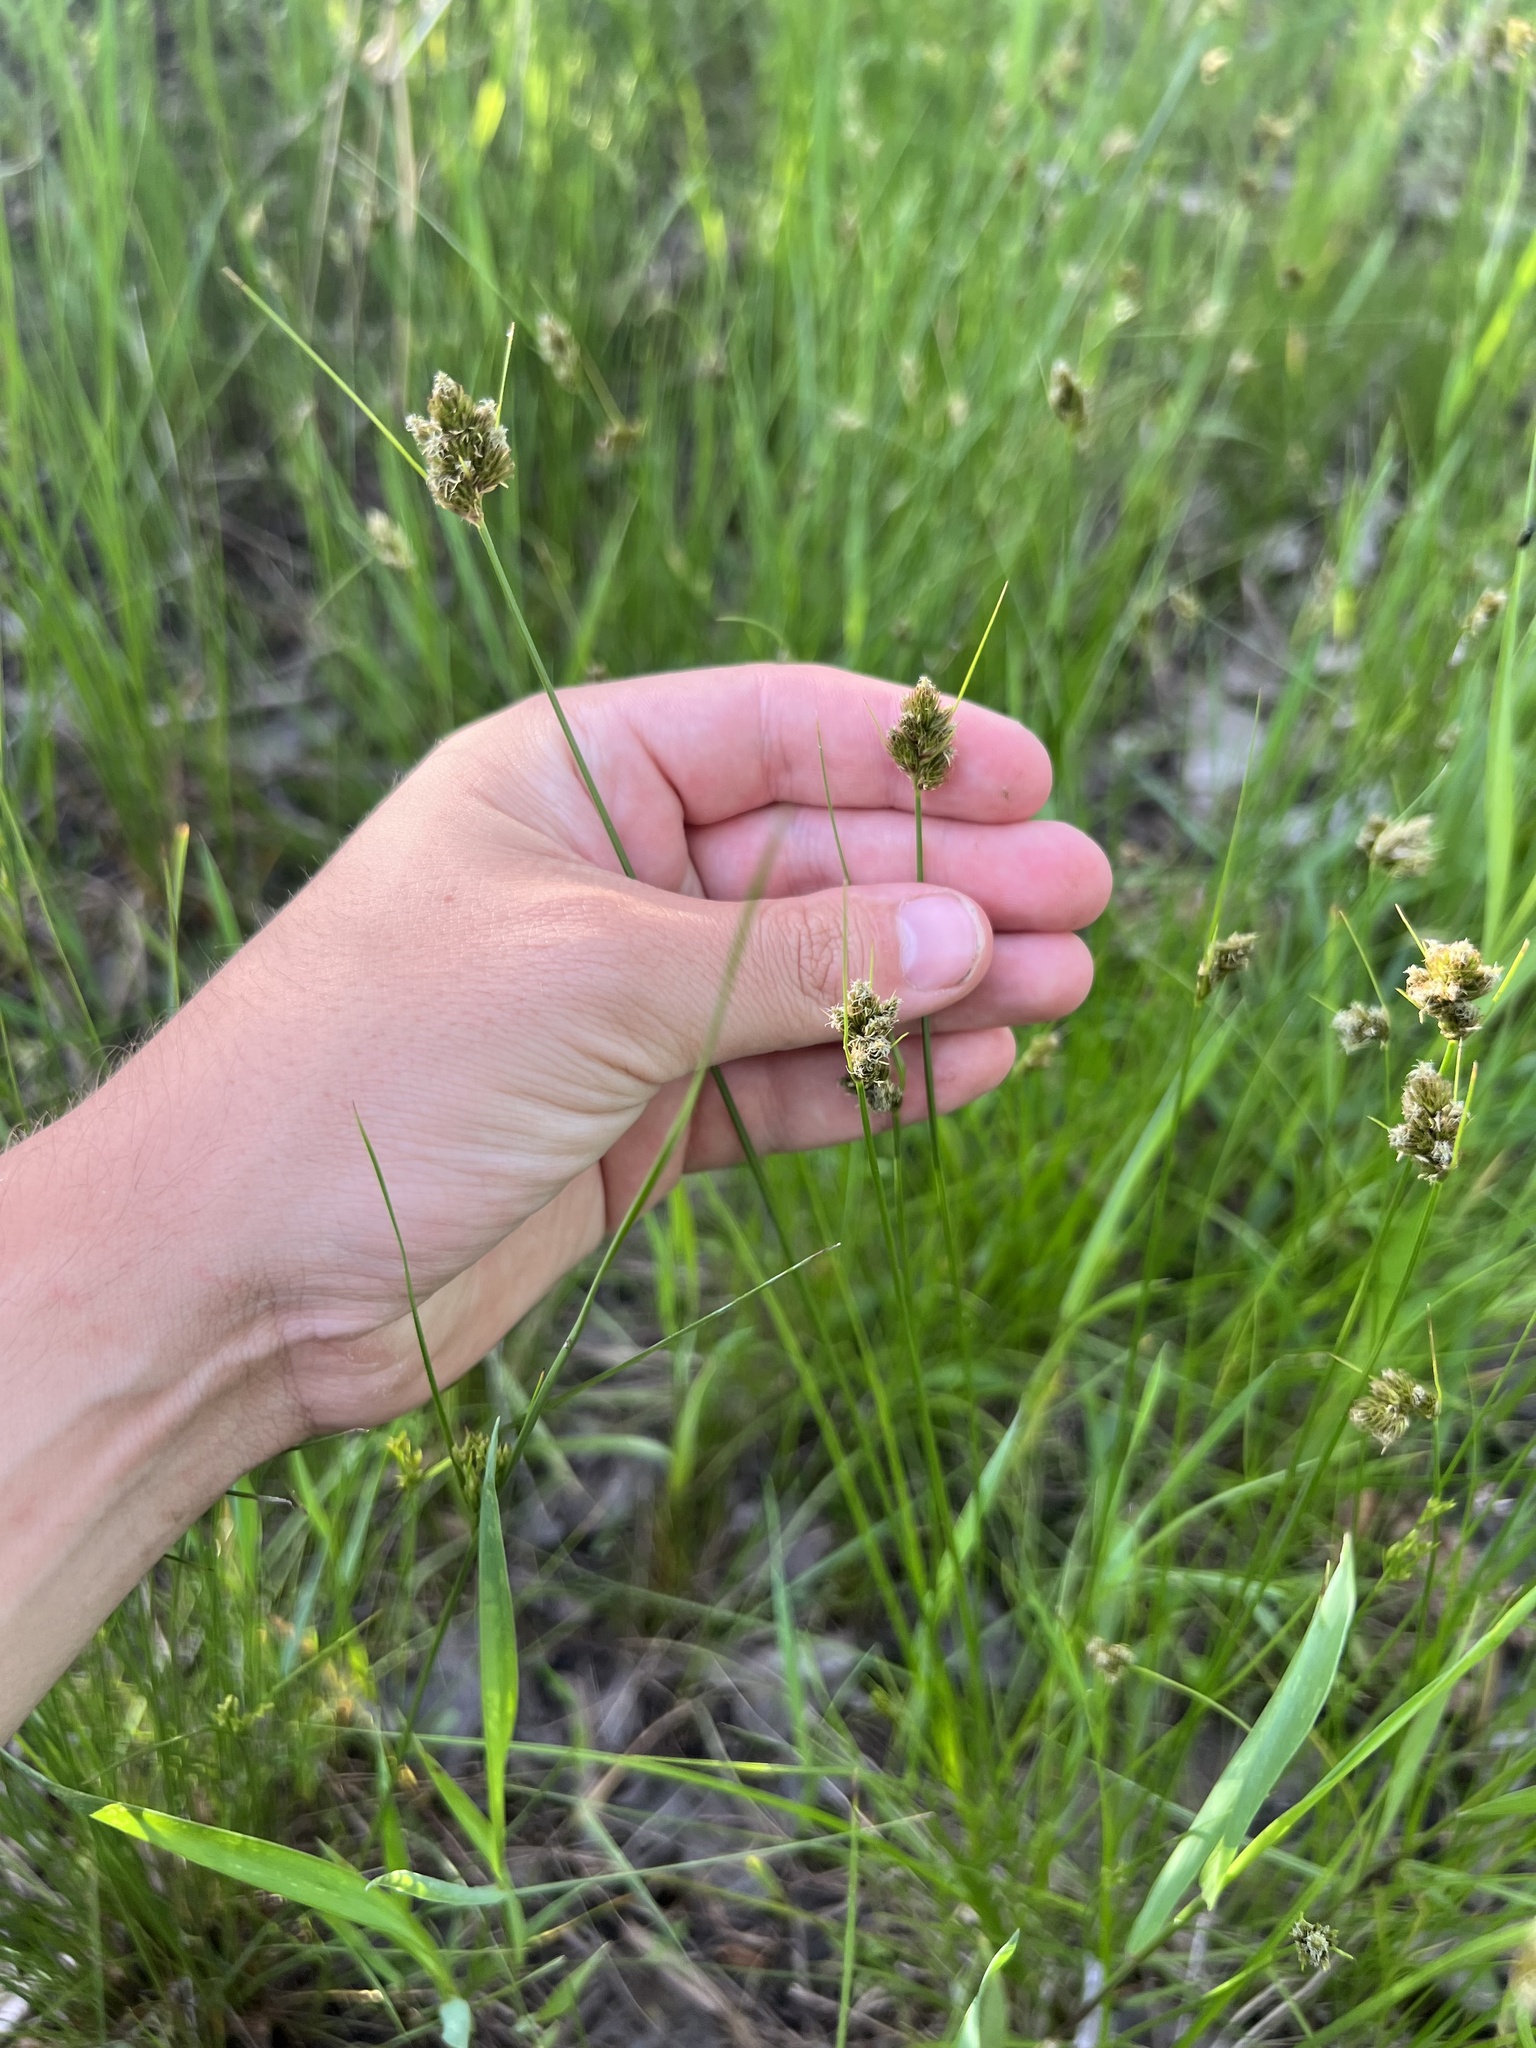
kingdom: Plantae
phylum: Tracheophyta
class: Liliopsida
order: Poales
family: Cyperaceae
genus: Carex
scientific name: Carex athrostachya
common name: Slenderbeak sedge
